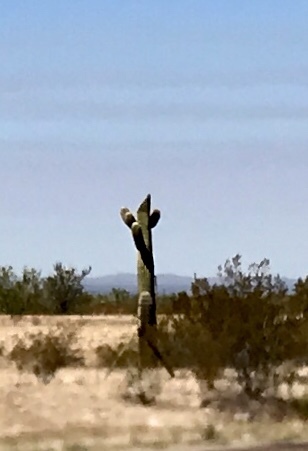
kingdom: Plantae
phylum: Tracheophyta
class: Magnoliopsida
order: Caryophyllales
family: Cactaceae
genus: Carnegiea
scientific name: Carnegiea gigantea
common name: Saguaro
